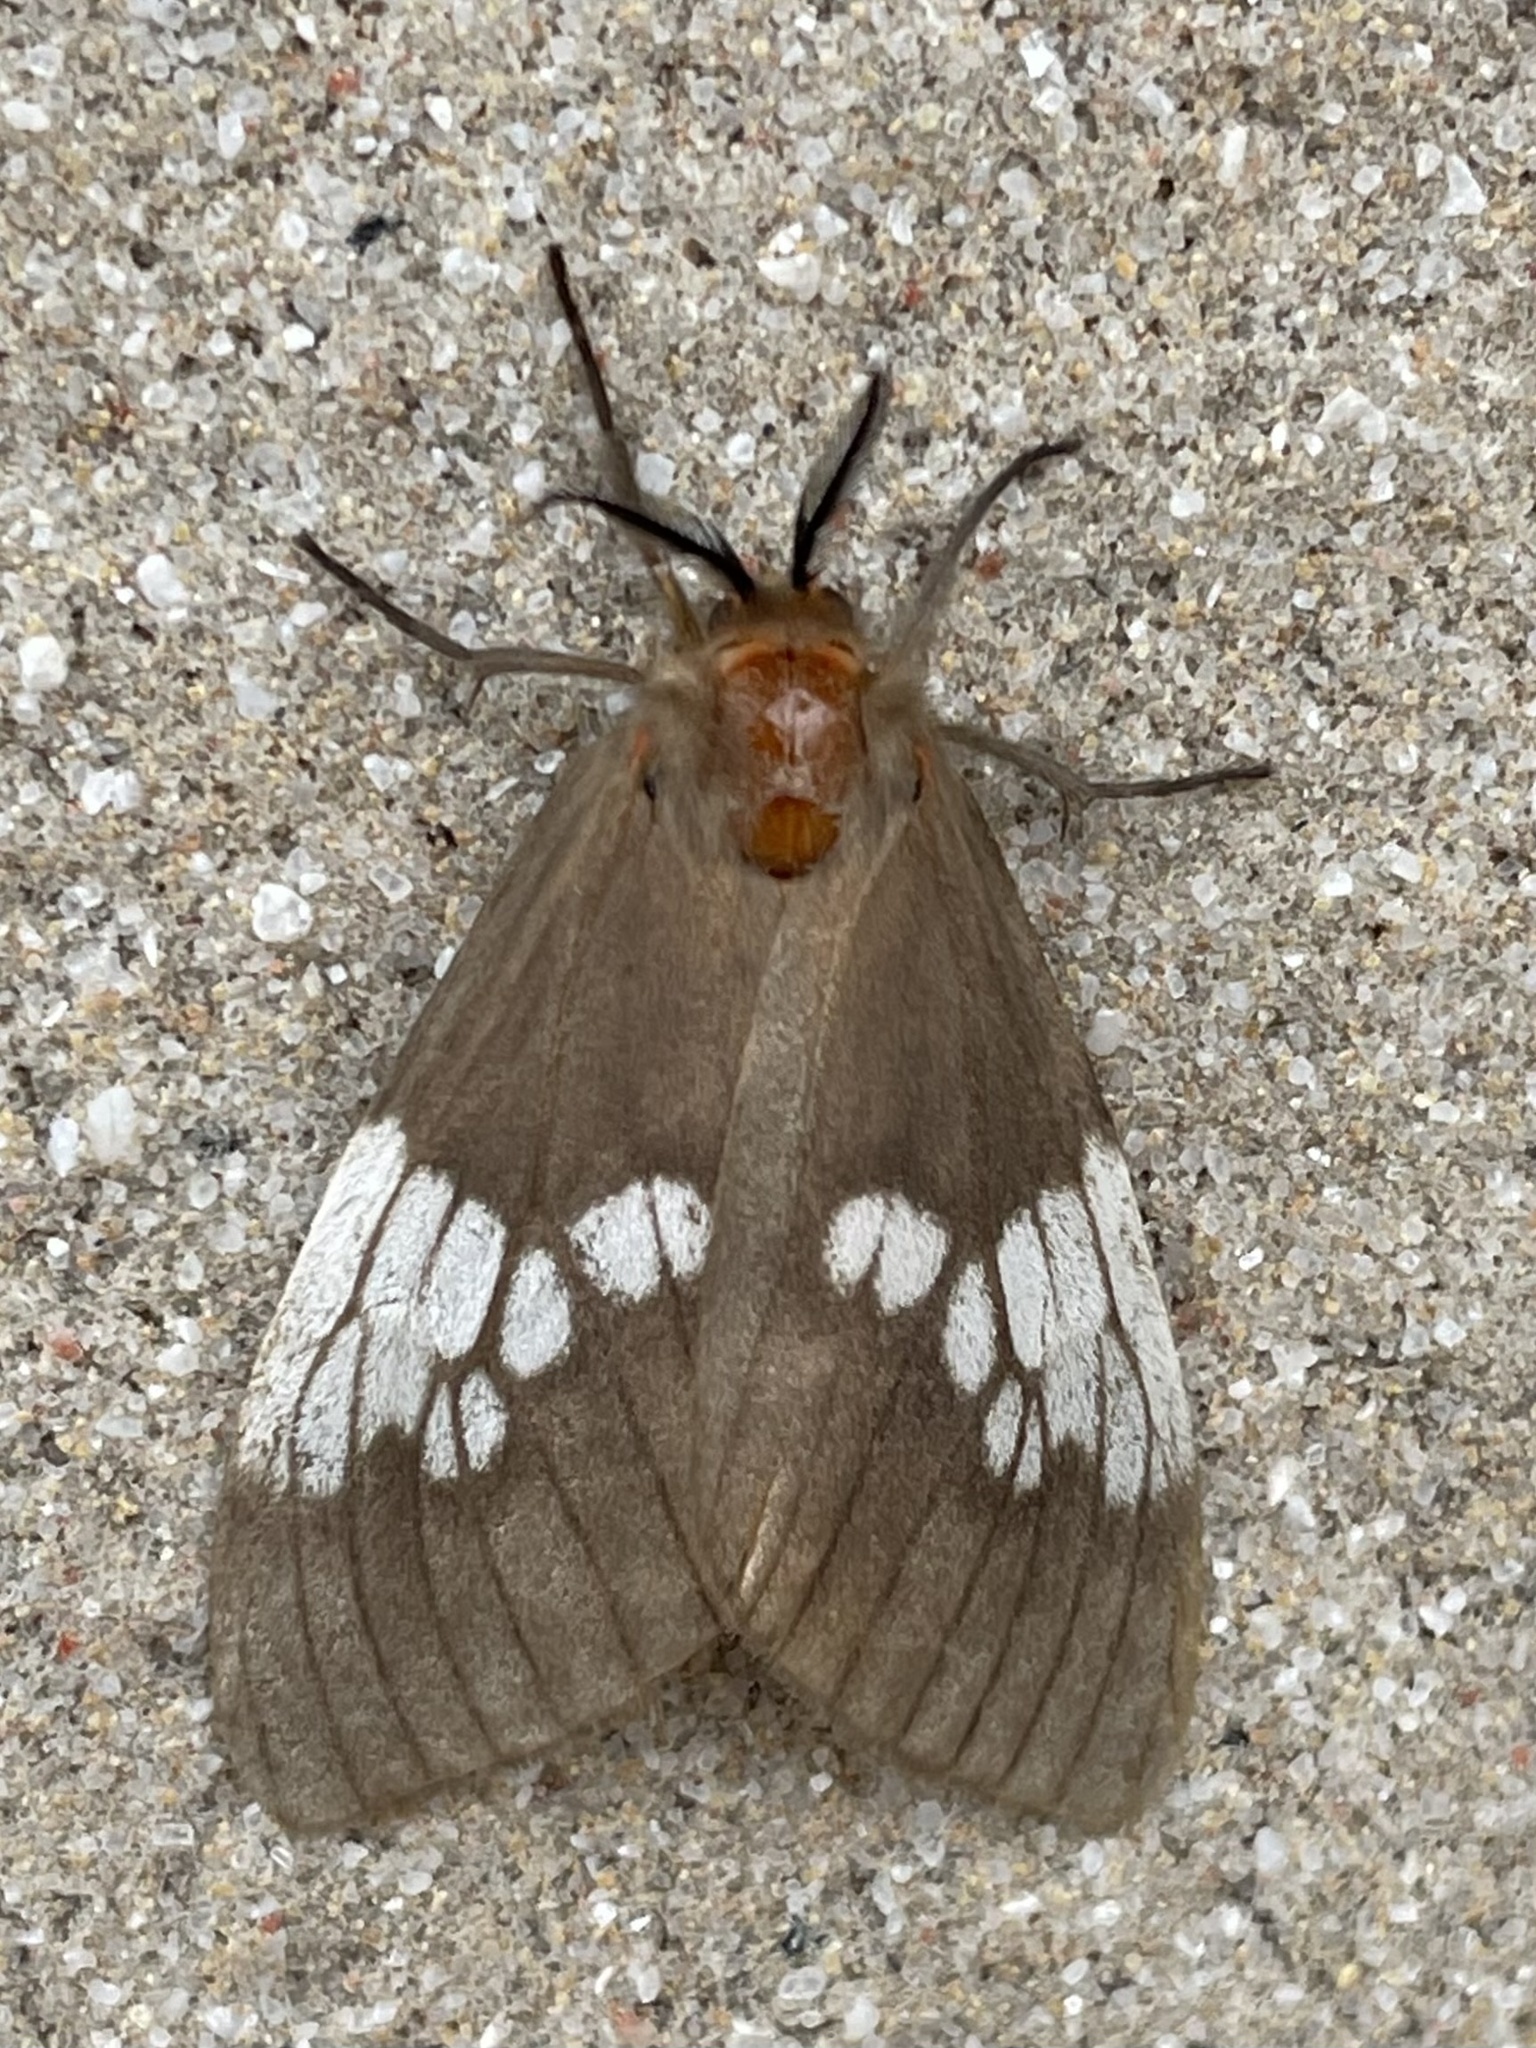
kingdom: Animalia
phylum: Arthropoda
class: Insecta
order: Lepidoptera
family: Erebidae
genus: Palasea
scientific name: Palasea albimacula
